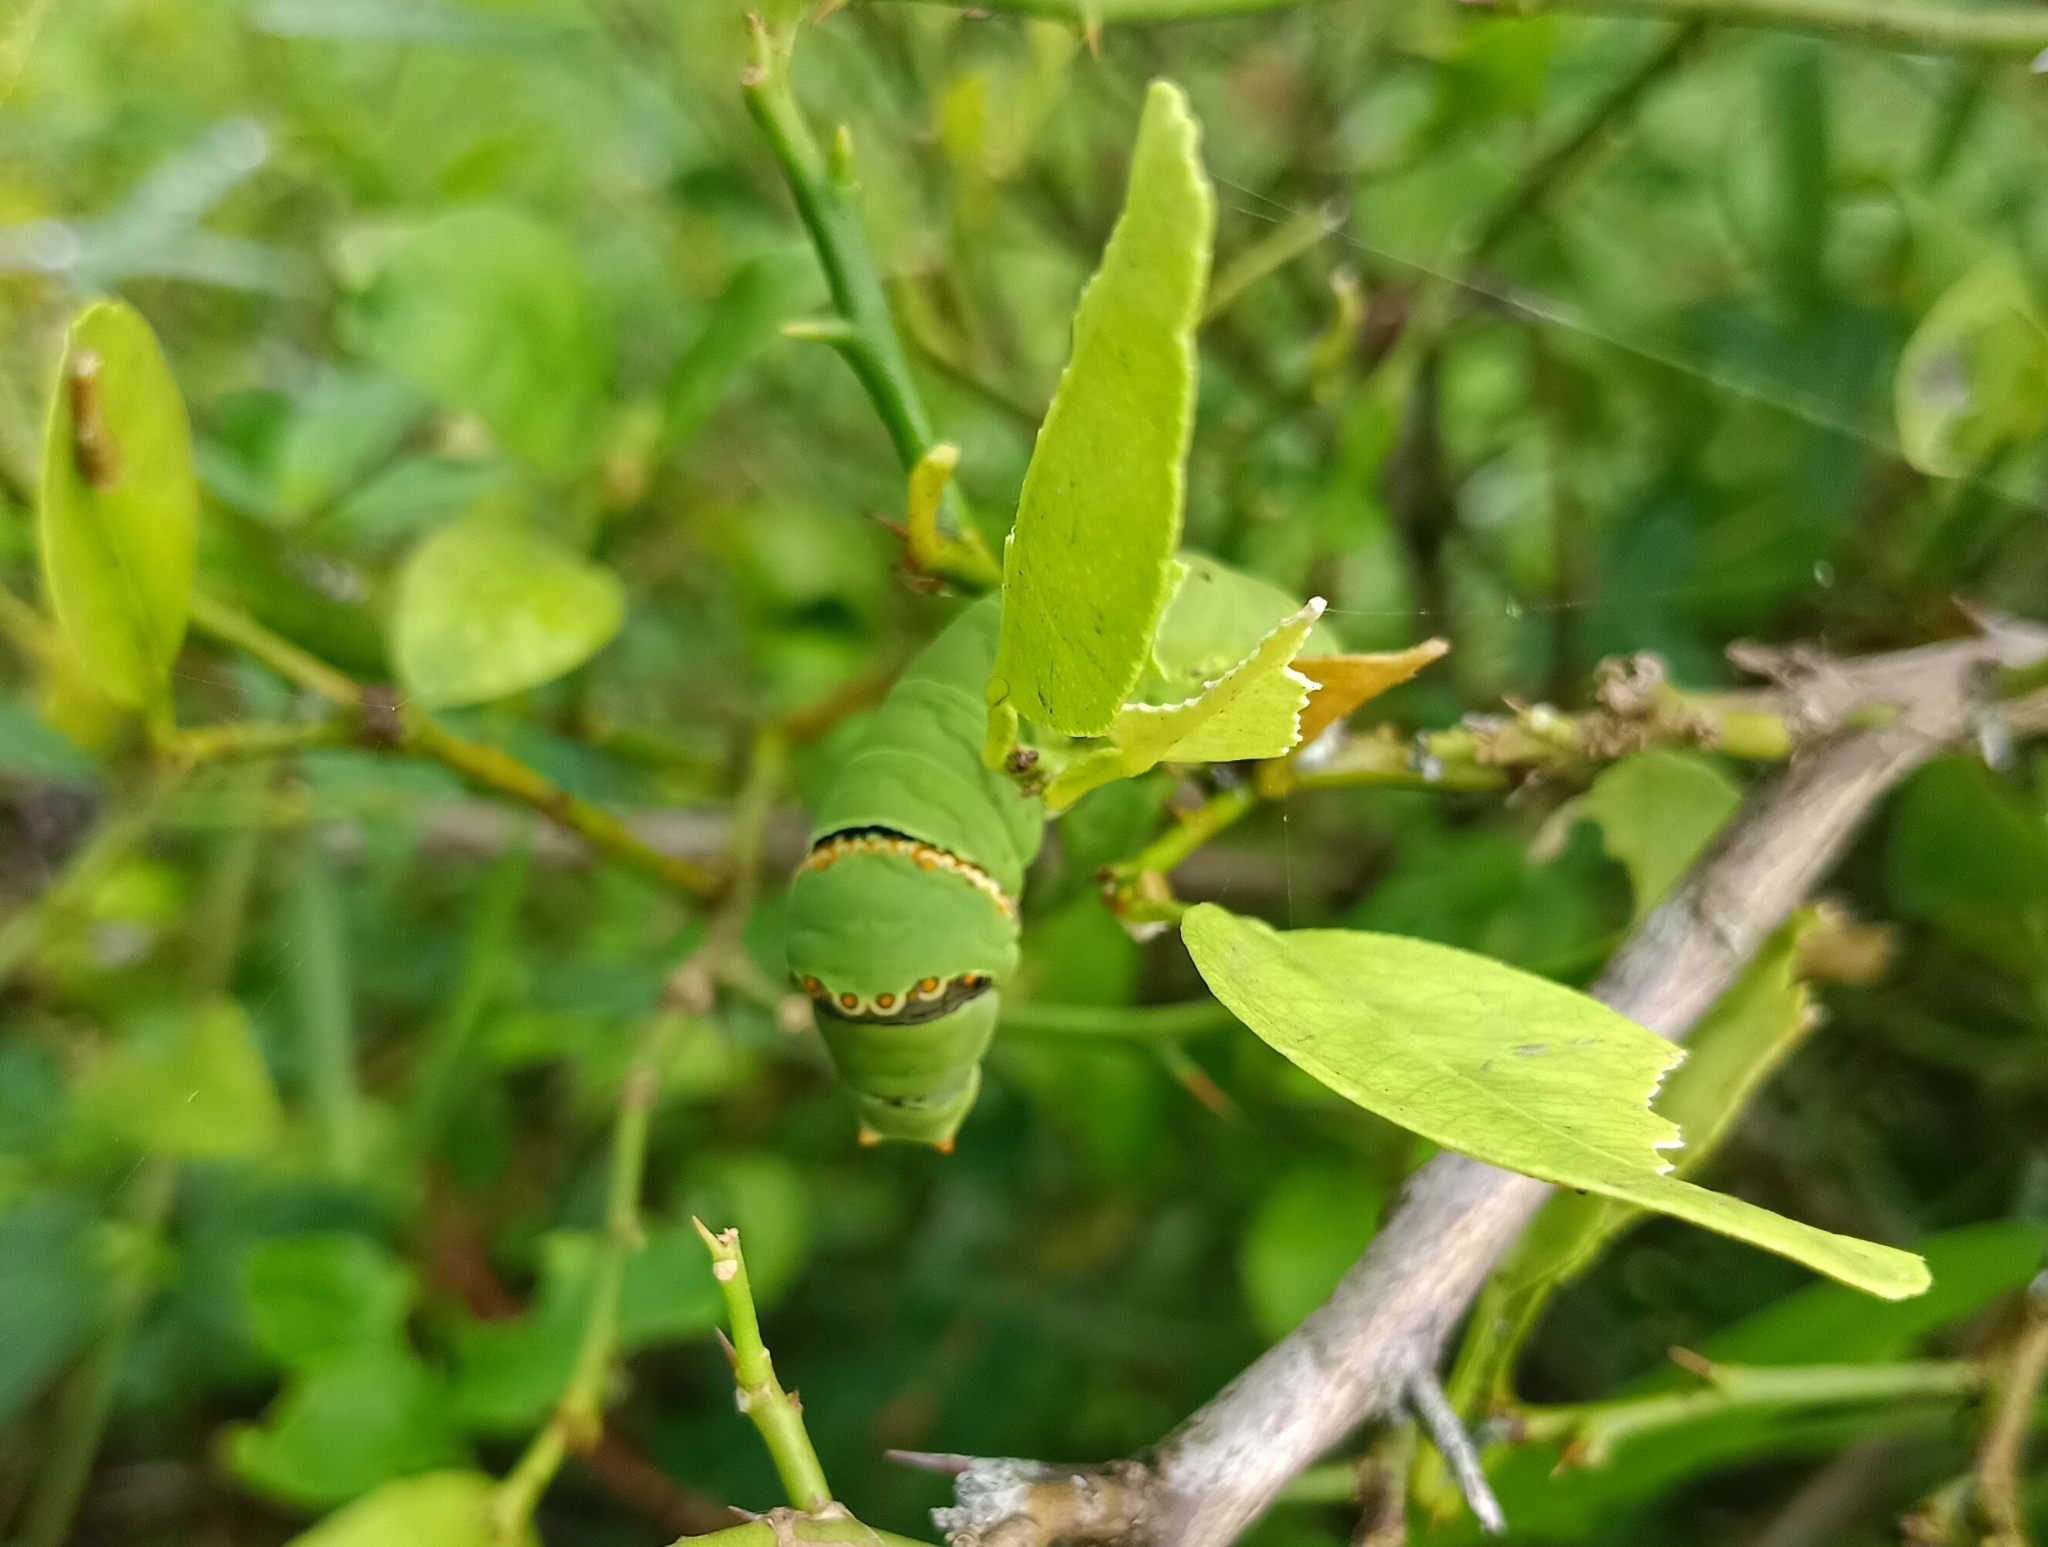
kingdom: Animalia
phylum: Arthropoda
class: Insecta
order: Lepidoptera
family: Papilionidae
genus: Papilio
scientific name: Papilio demoleus
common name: Lime butterfly
